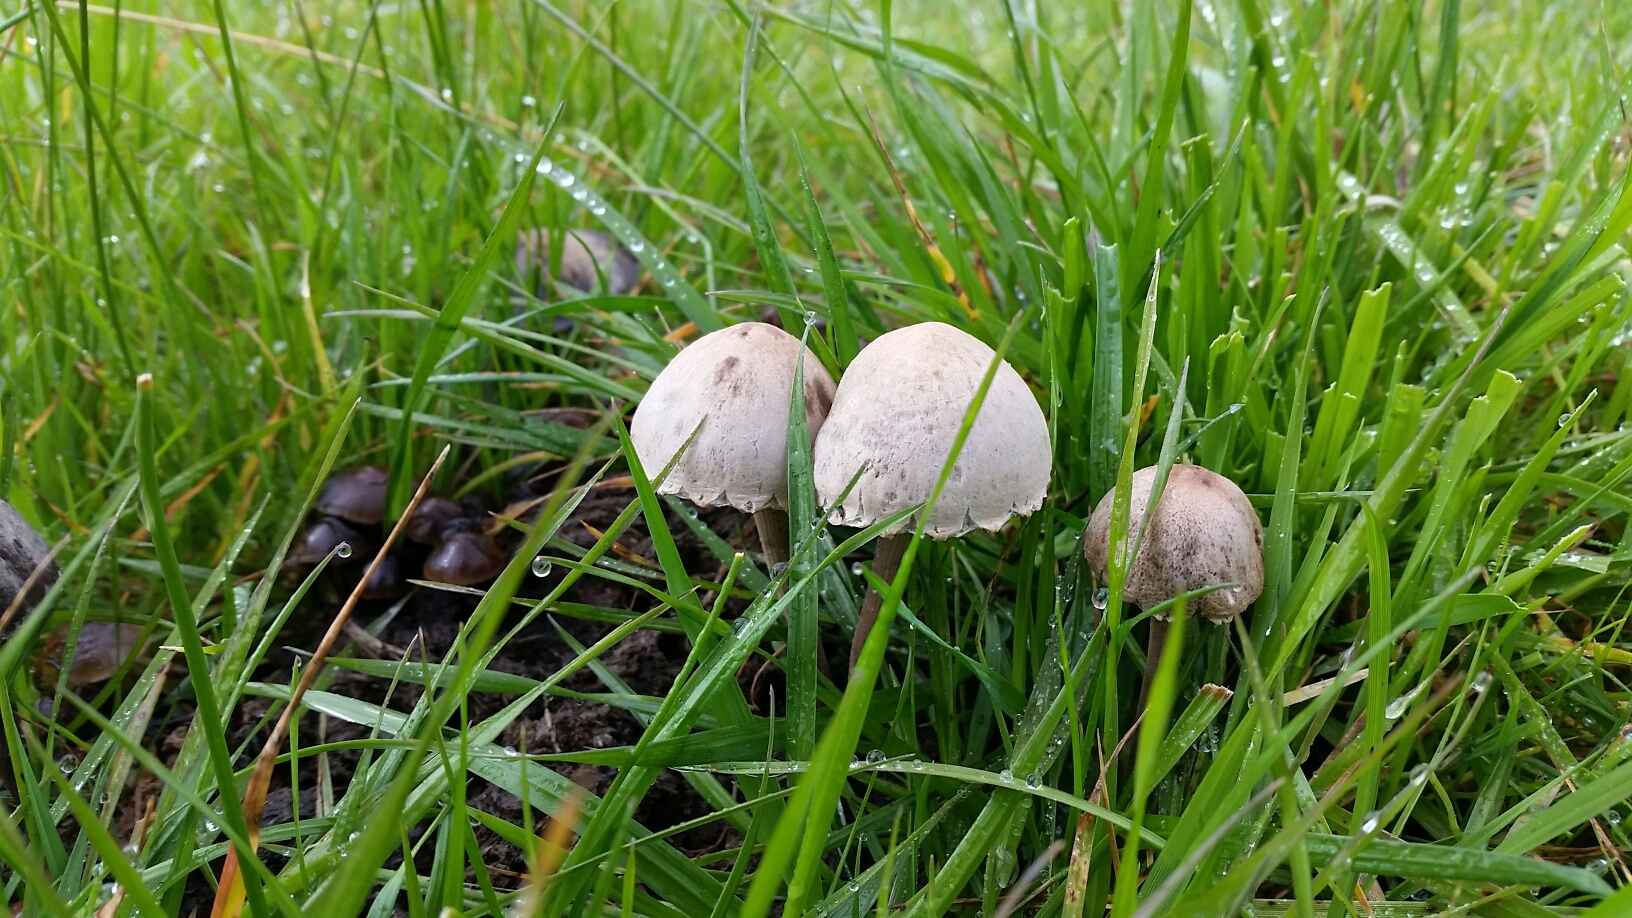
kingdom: Fungi
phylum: Basidiomycota
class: Agaricomycetes
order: Agaricales
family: Bolbitiaceae
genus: Panaeolus
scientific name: Panaeolus papilionaceus
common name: Petticoat mottlegill
